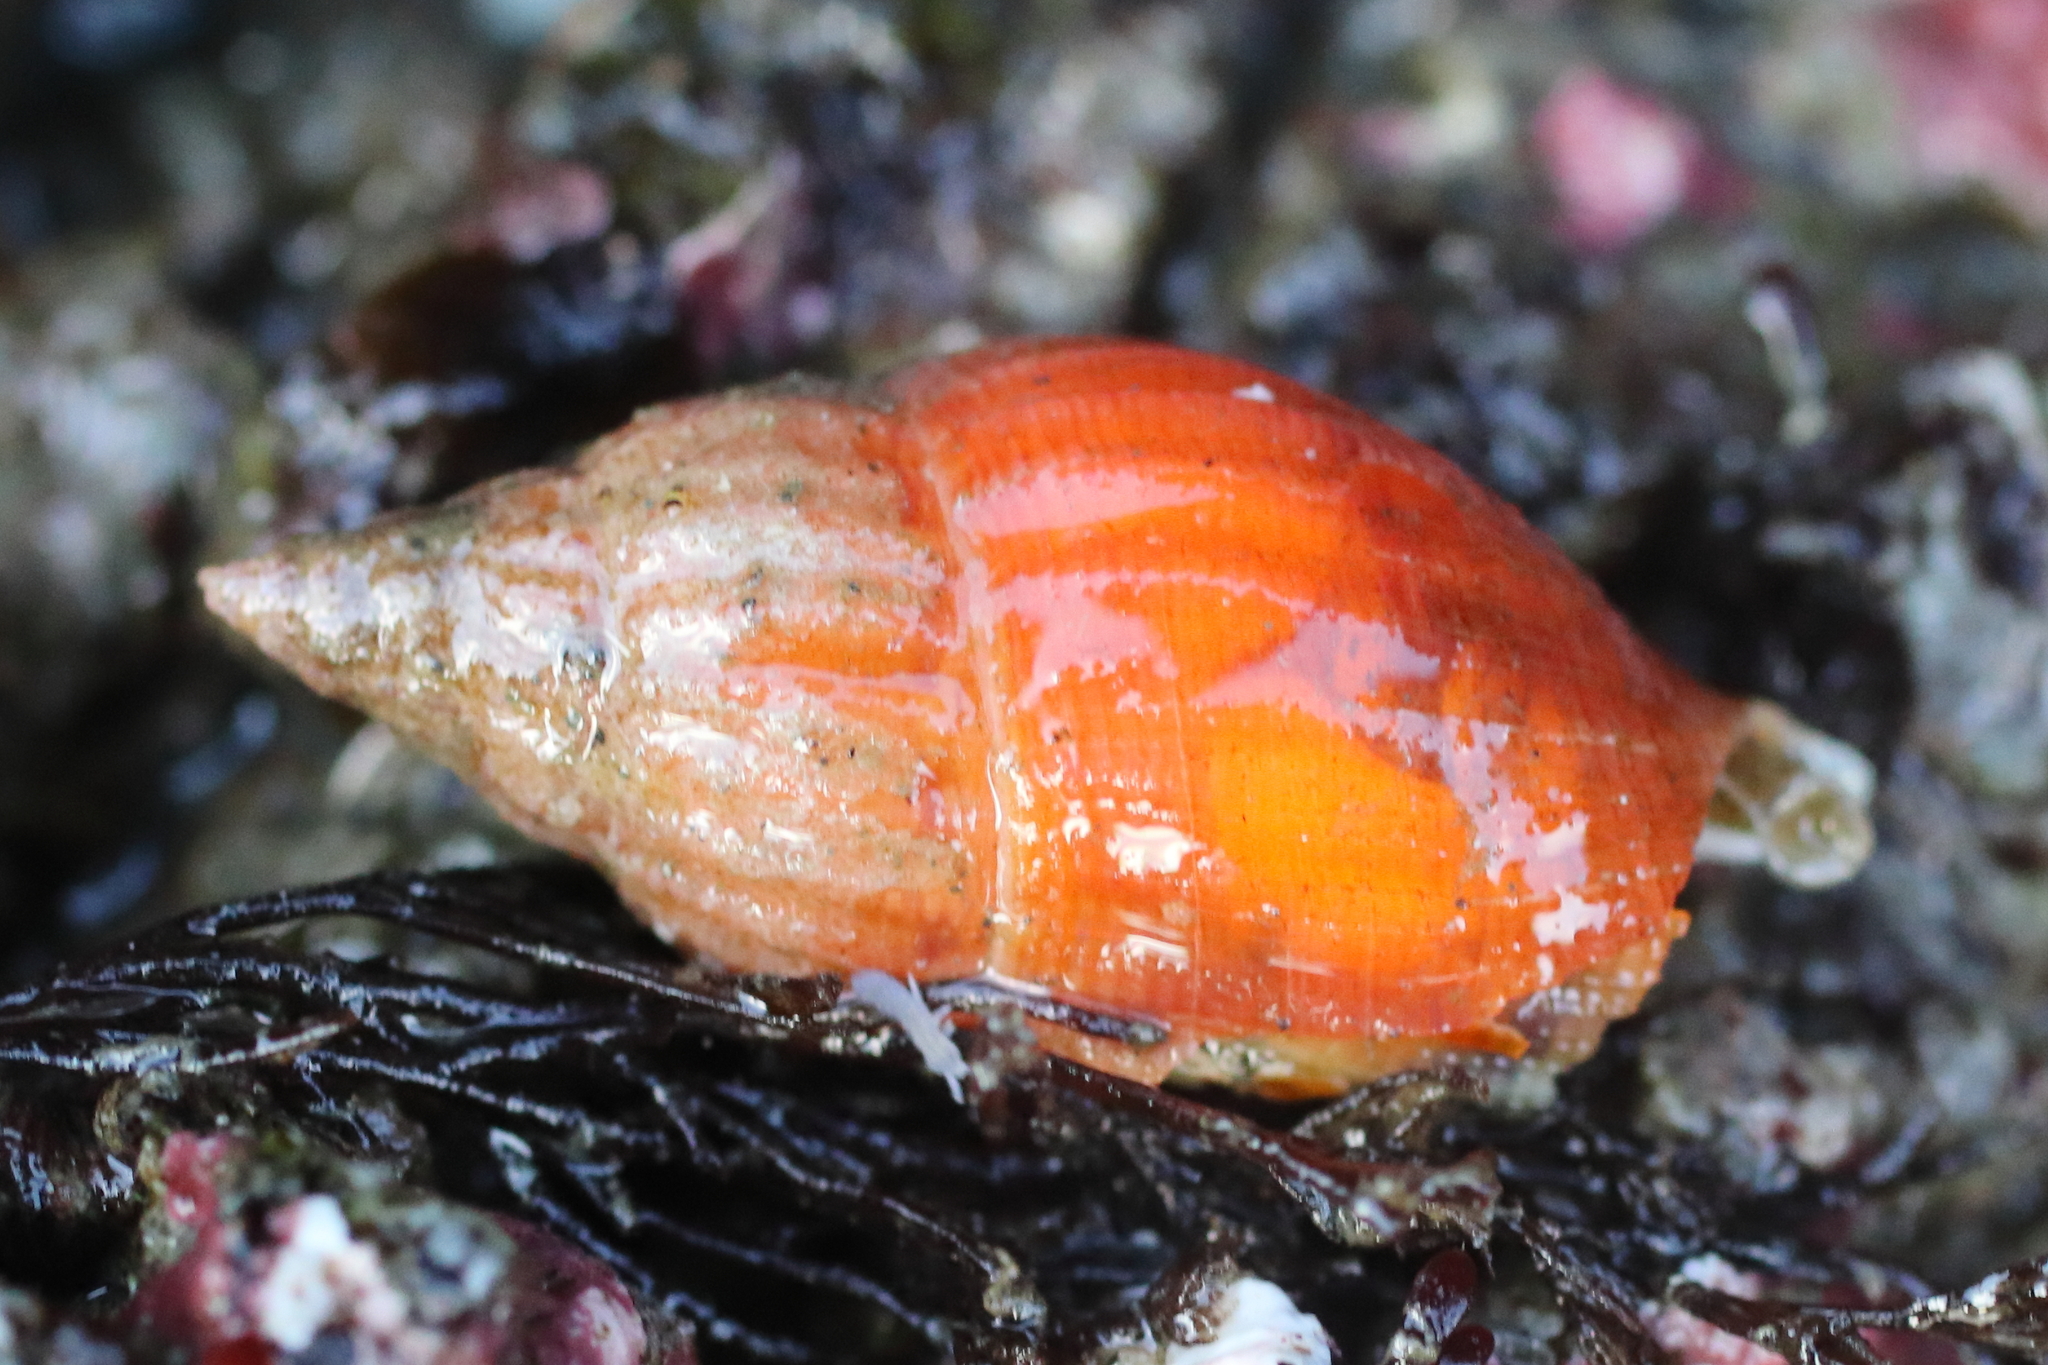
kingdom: Animalia
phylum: Mollusca
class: Gastropoda
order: Neogastropoda
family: Columbellidae
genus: Amphissa
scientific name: Amphissa columbiana
